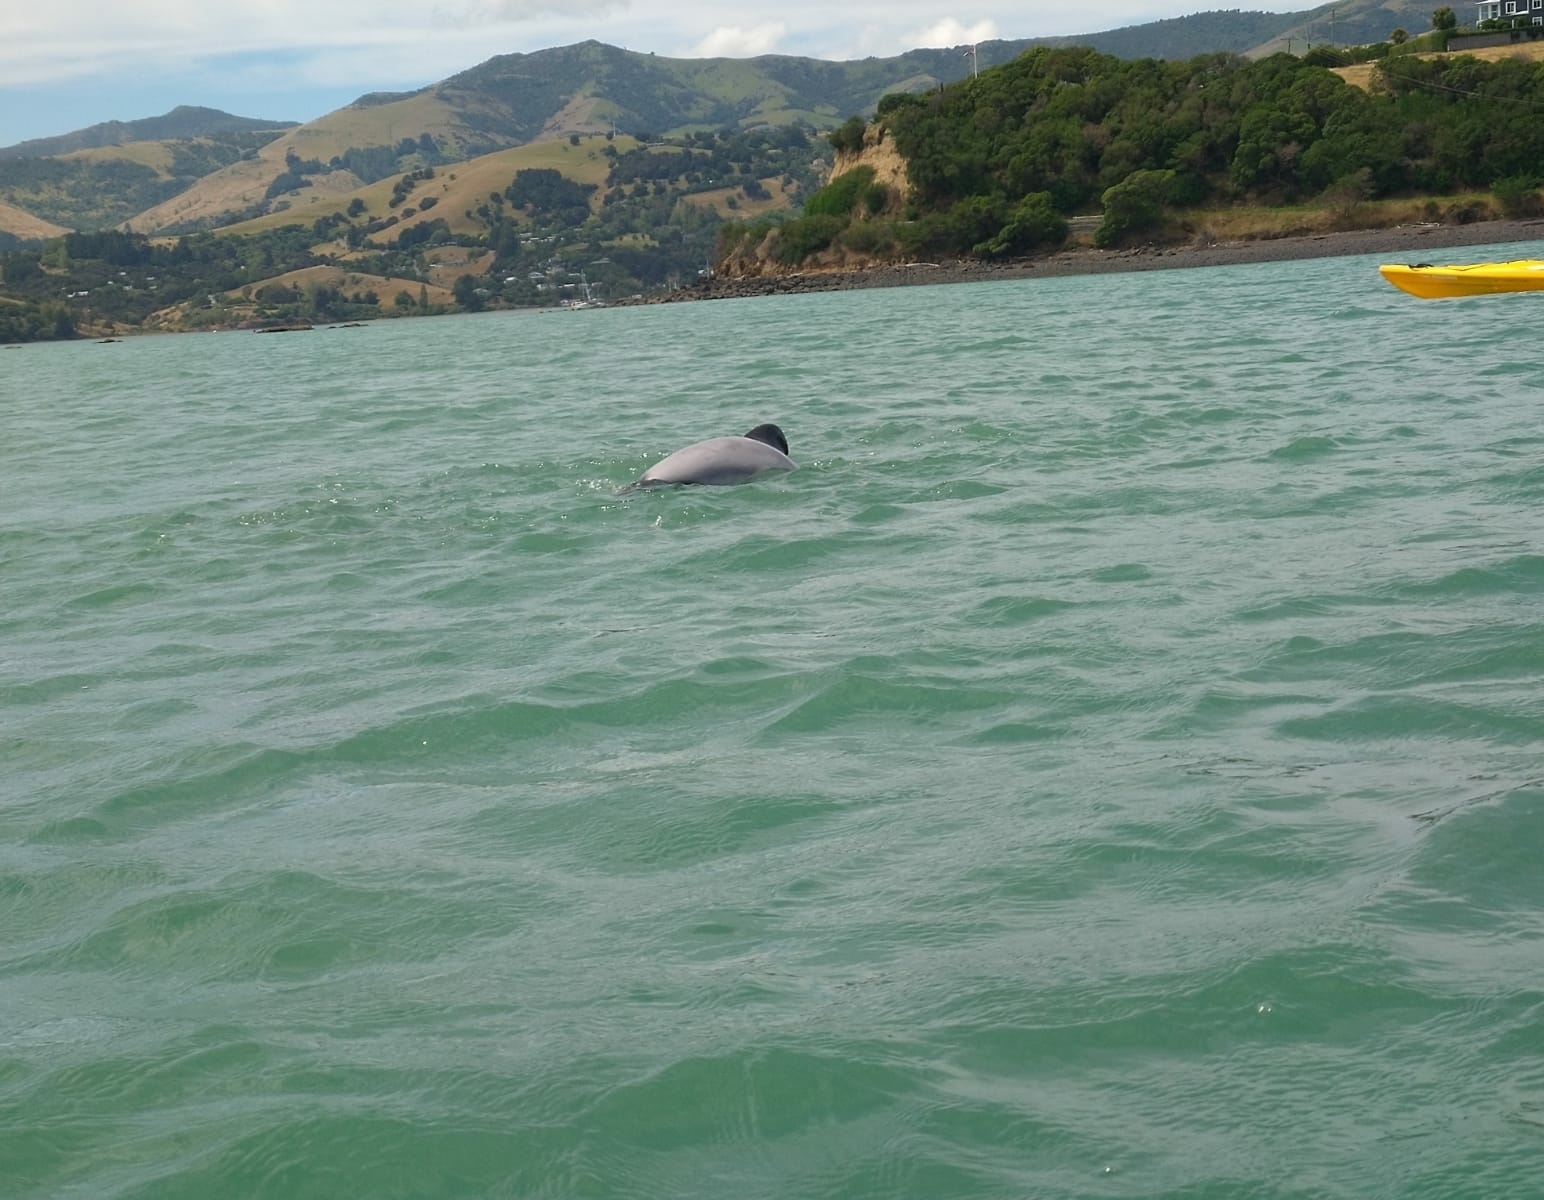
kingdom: Animalia
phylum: Chordata
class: Mammalia
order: Cetacea
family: Delphinidae
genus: Cephalorhynchus
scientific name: Cephalorhynchus hectori
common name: Hector's dolphin
